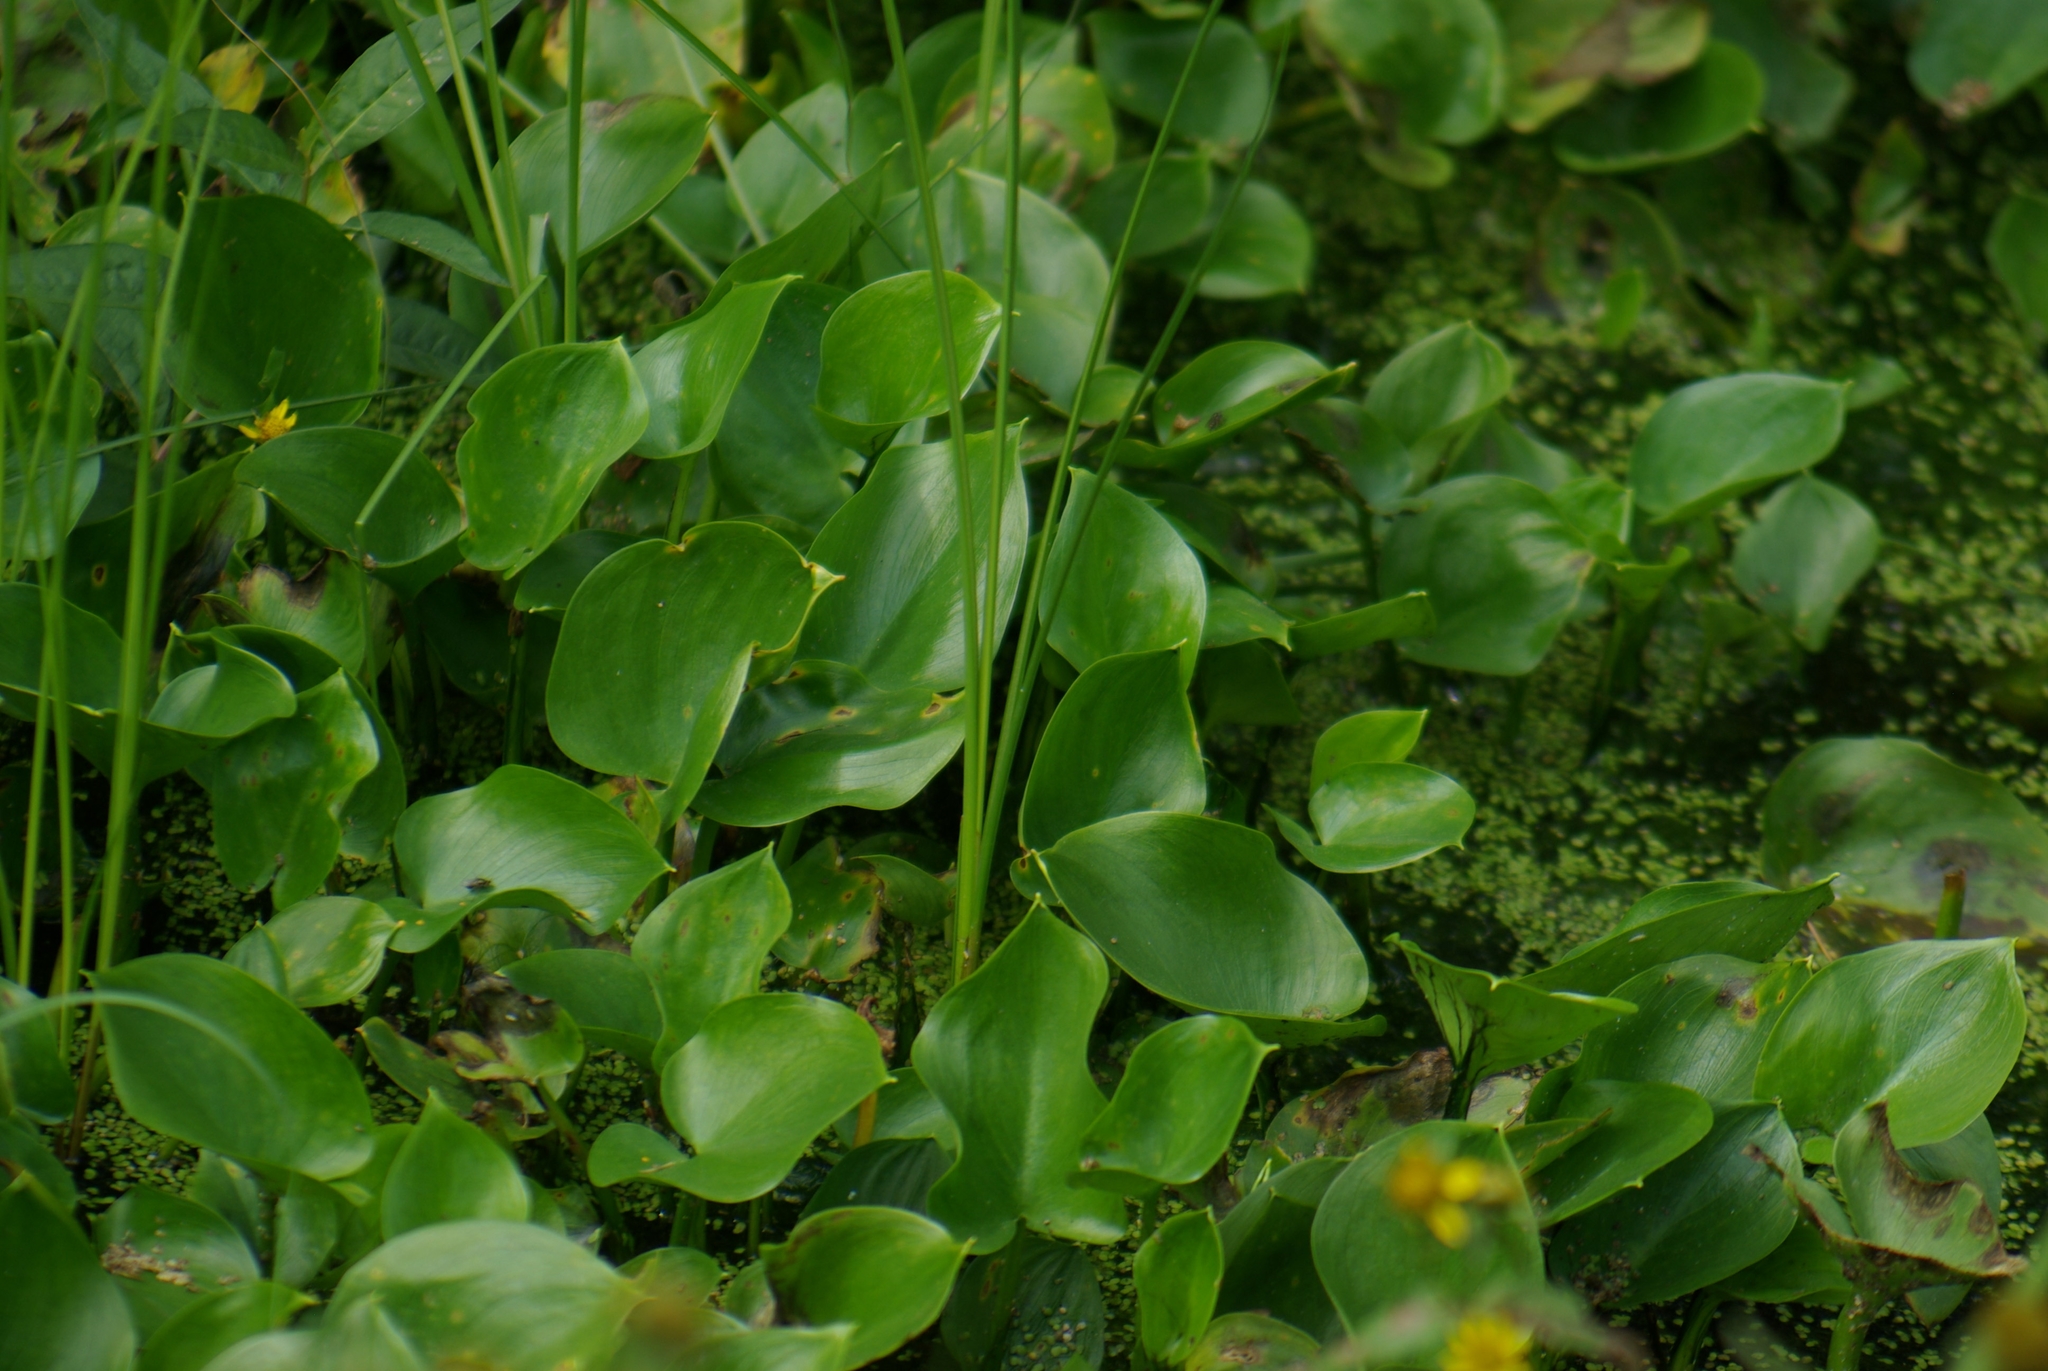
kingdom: Plantae
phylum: Tracheophyta
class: Liliopsida
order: Alismatales
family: Araceae
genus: Calla
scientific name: Calla palustris
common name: Bog arum
